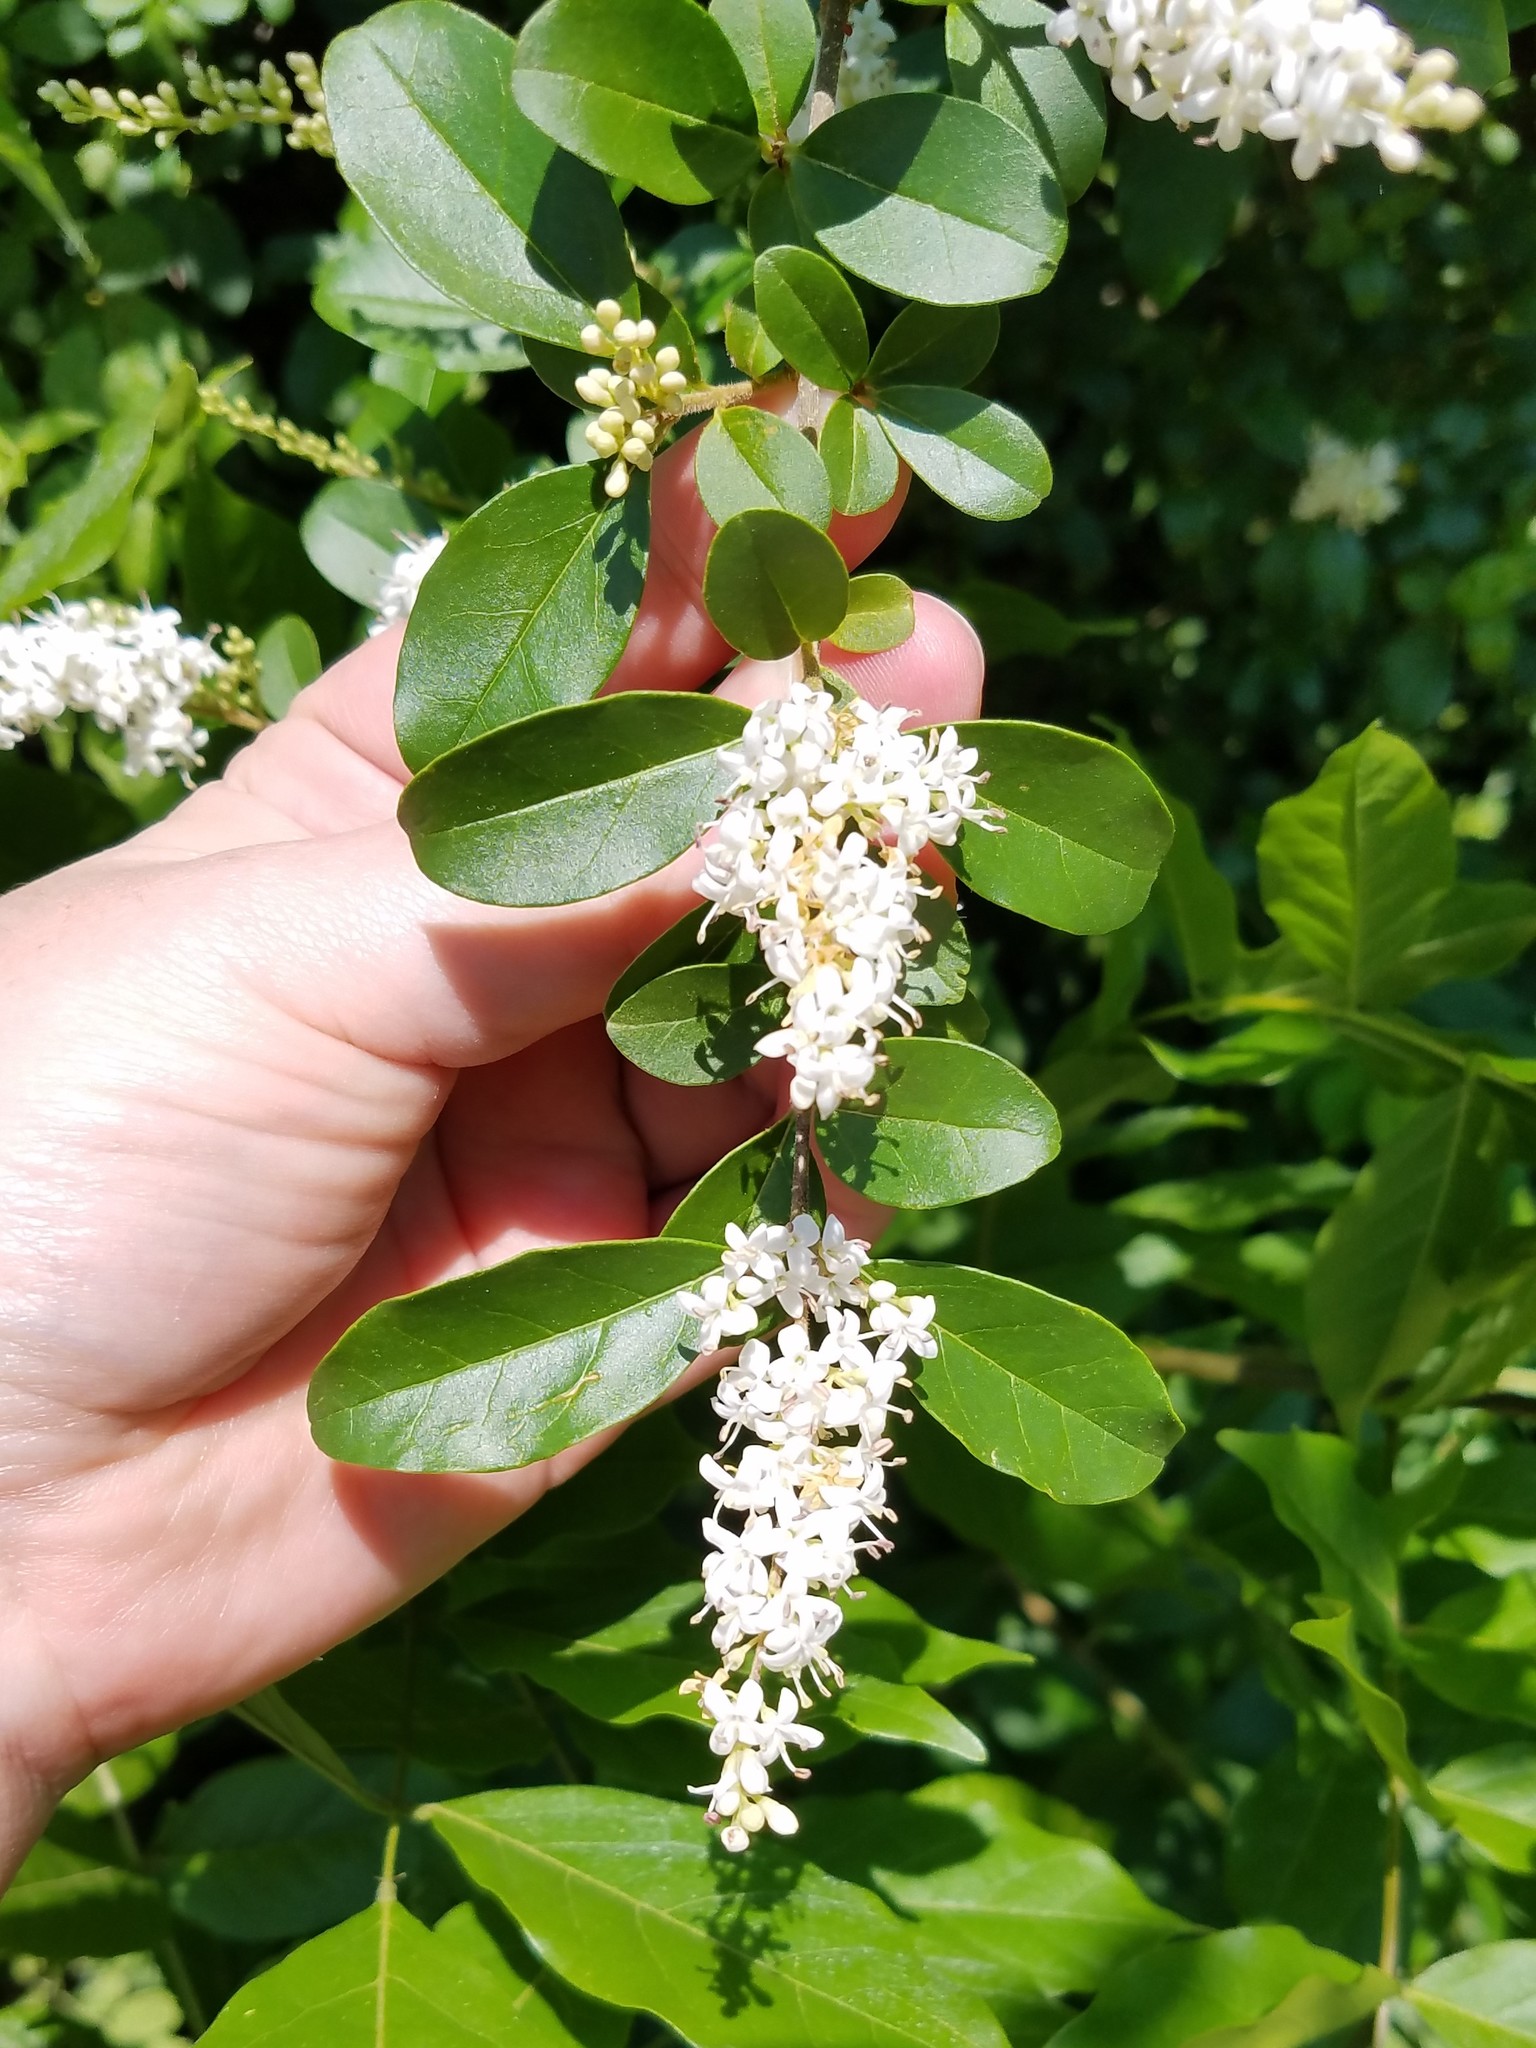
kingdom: Plantae
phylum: Tracheophyta
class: Magnoliopsida
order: Lamiales
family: Oleaceae
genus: Ligustrum
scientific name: Ligustrum sinense
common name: Chinese privet
